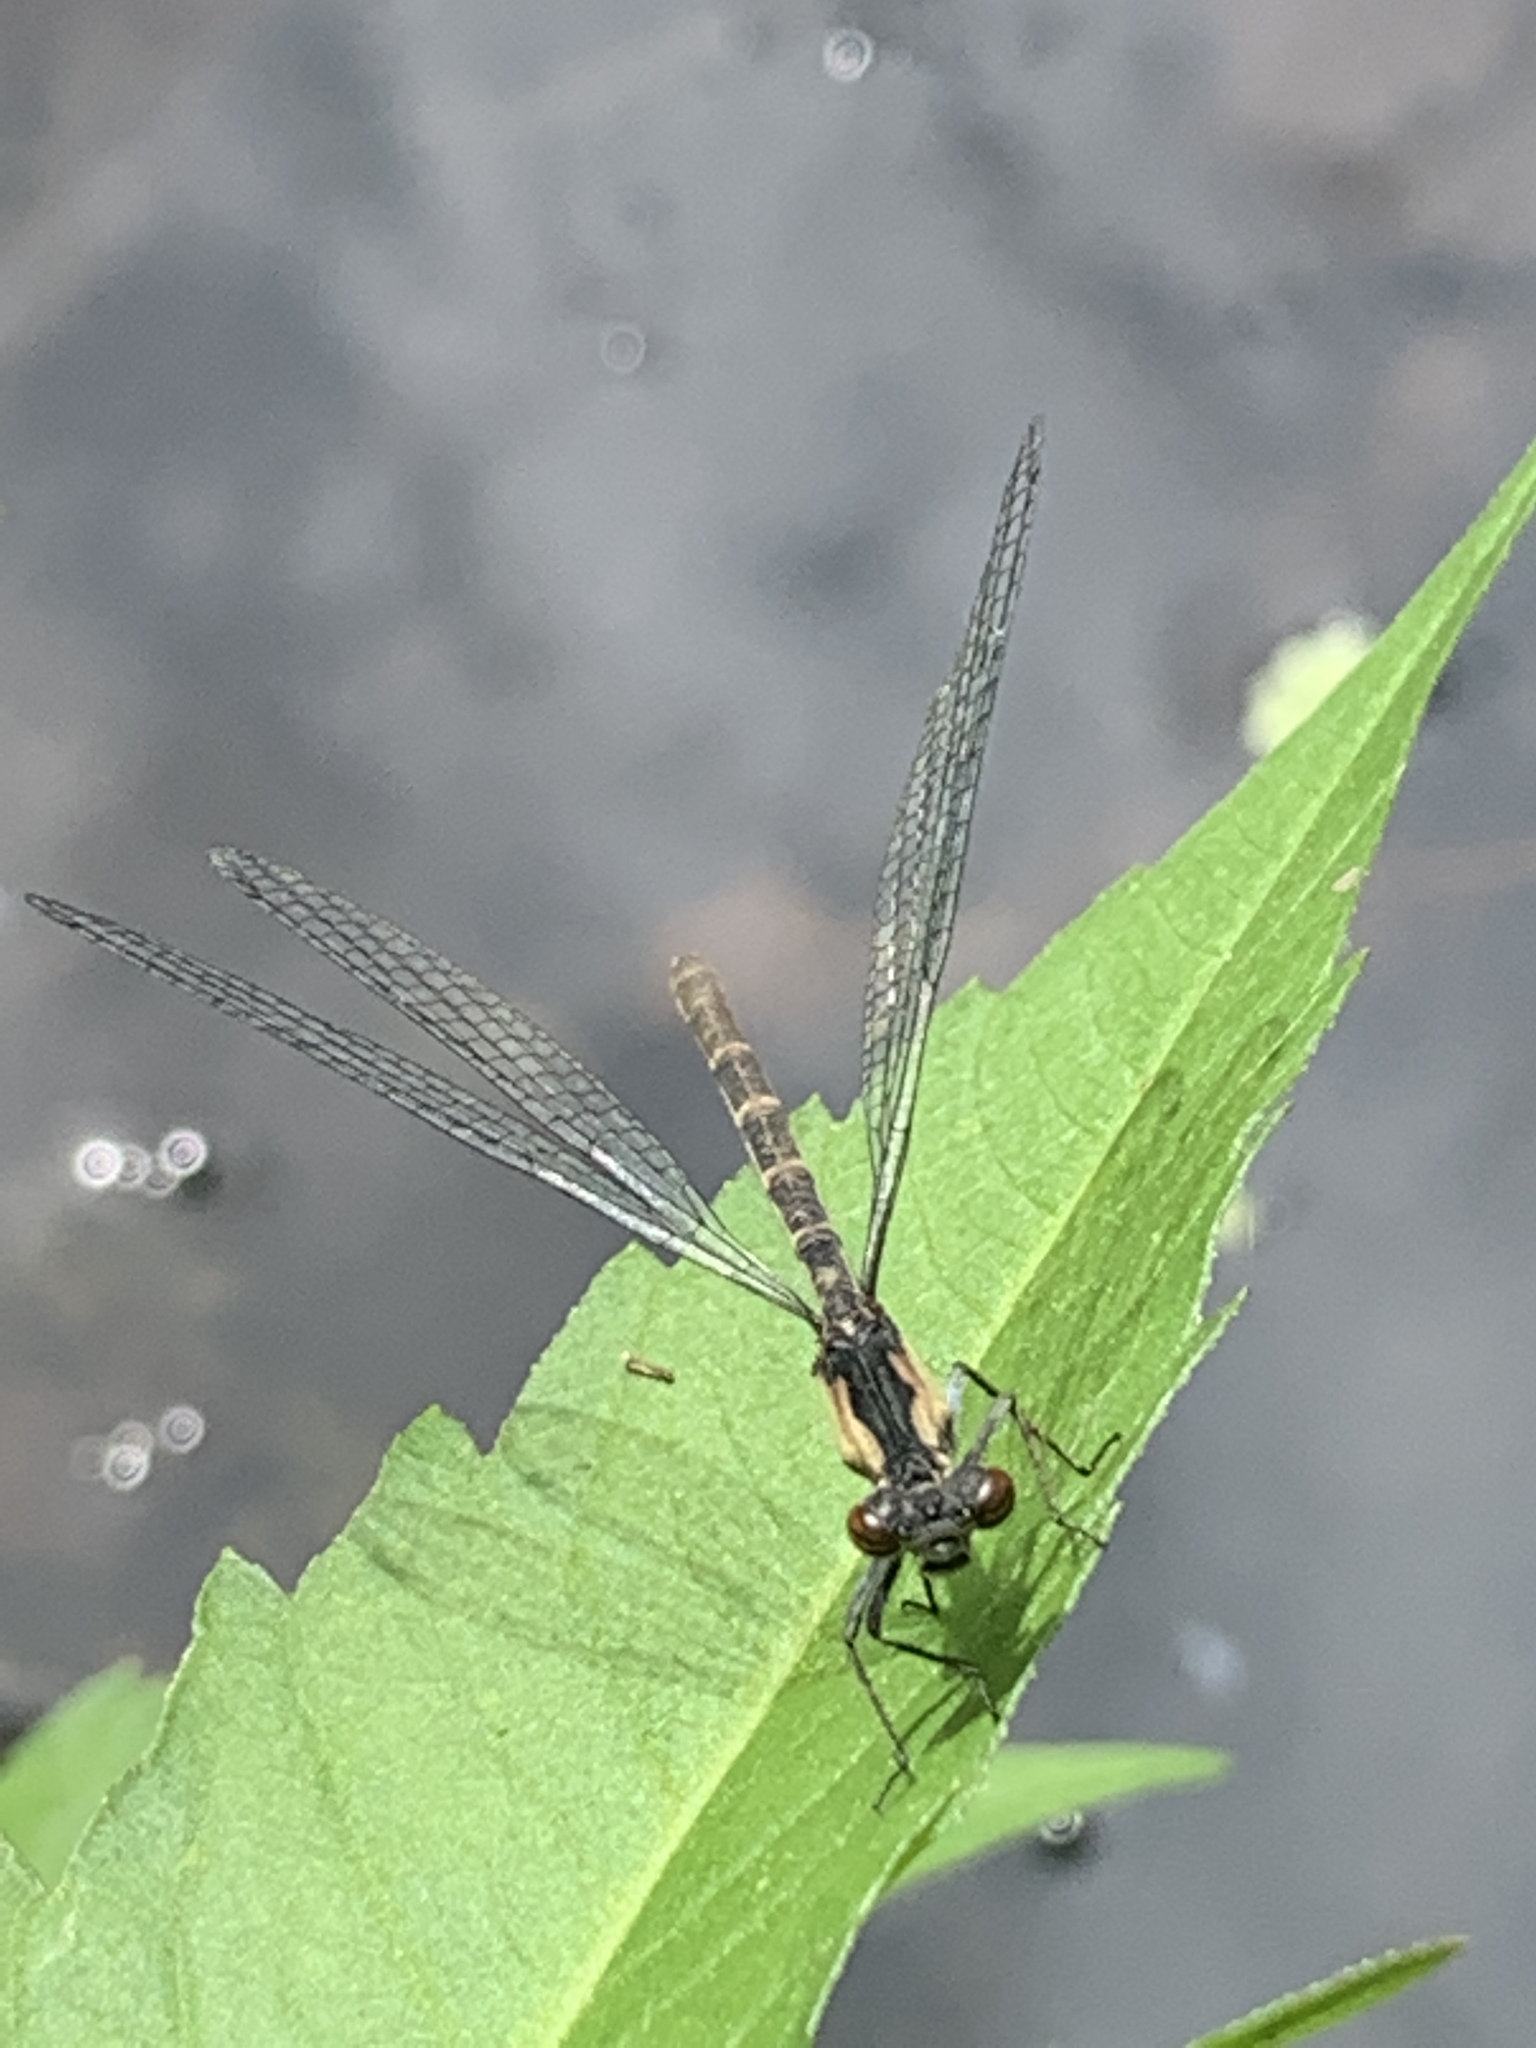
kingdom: Animalia
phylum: Arthropoda
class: Insecta
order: Odonata
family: Coenagrionidae
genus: Chromagrion
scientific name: Chromagrion conditum
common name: Aurora damsel
